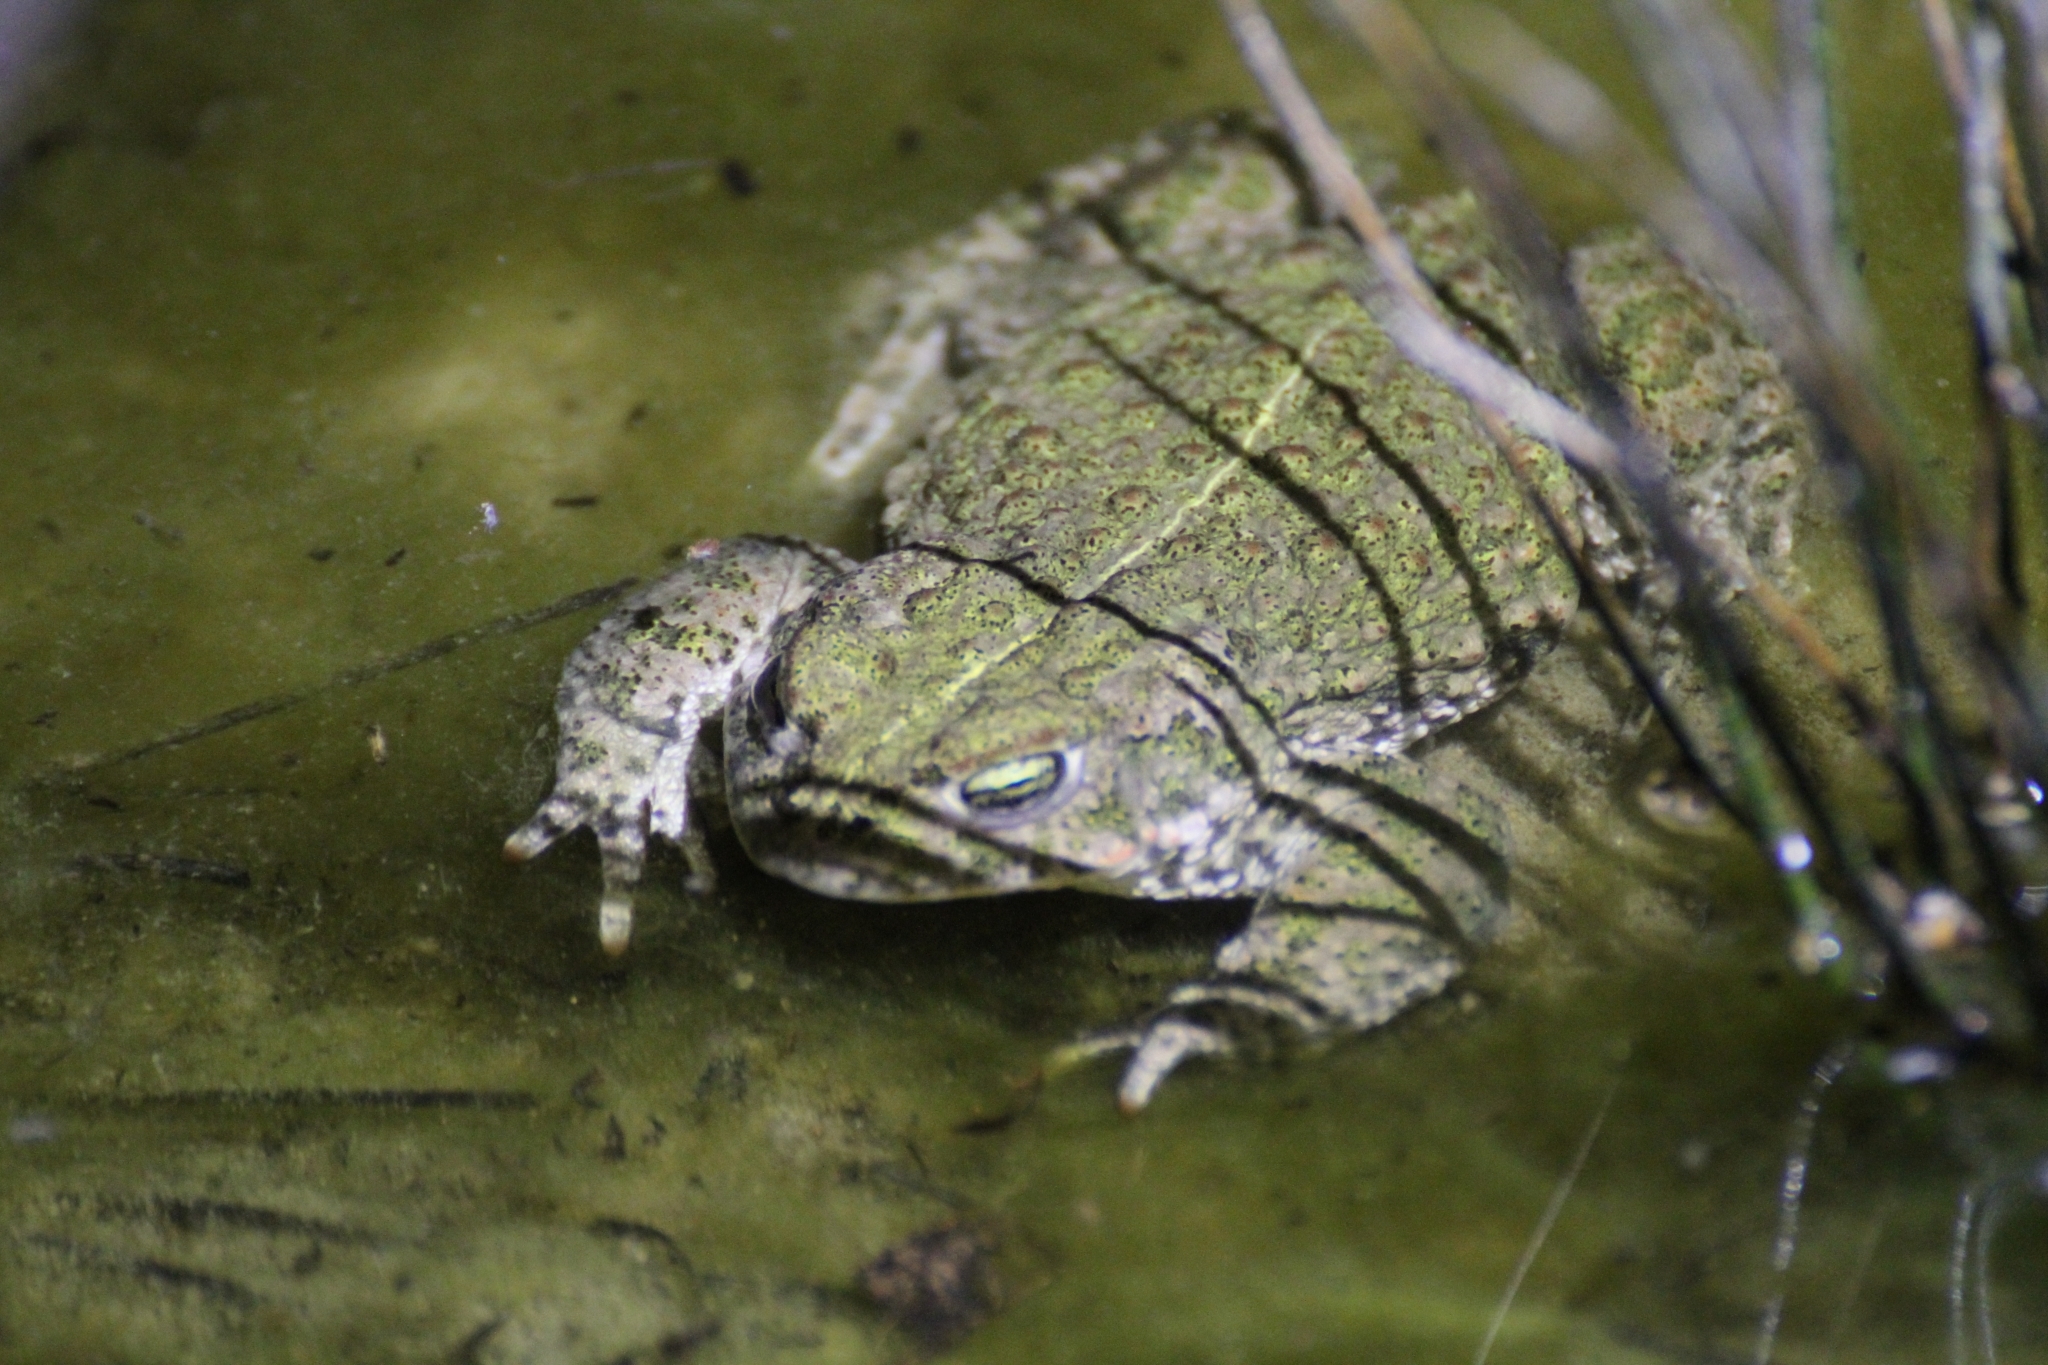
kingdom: Animalia
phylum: Chordata
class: Amphibia
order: Anura
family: Bufonidae
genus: Epidalea
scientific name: Epidalea calamita
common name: Natterjack toad
